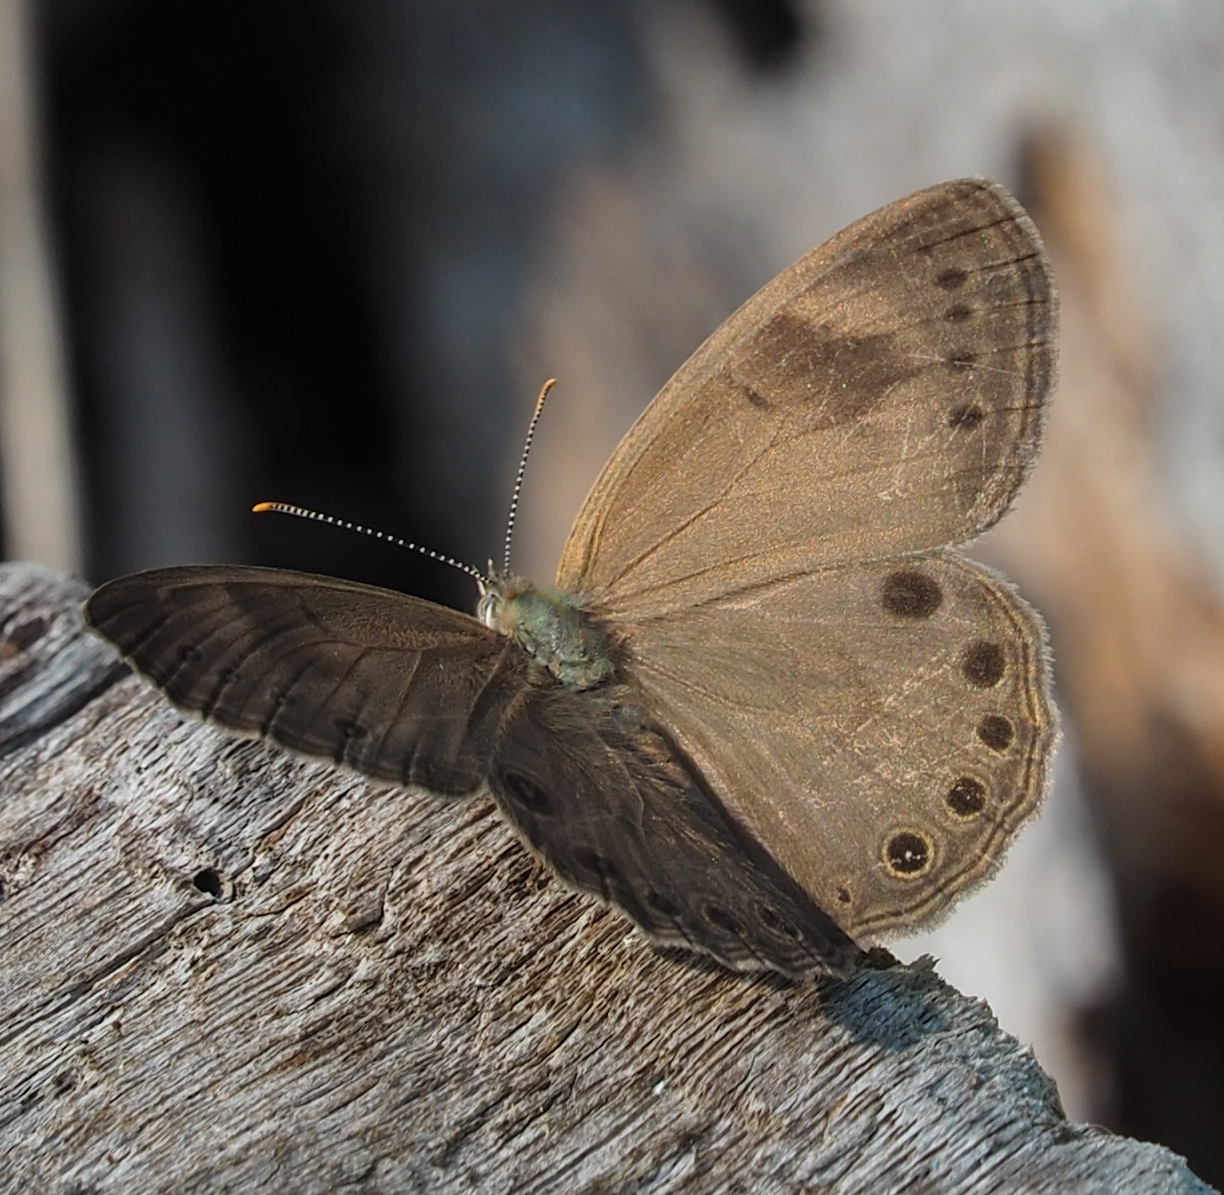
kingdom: Animalia
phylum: Arthropoda
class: Insecta
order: Lepidoptera
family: Nymphalidae
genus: Lethe
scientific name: Lethe eurydice
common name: Eyed brown
